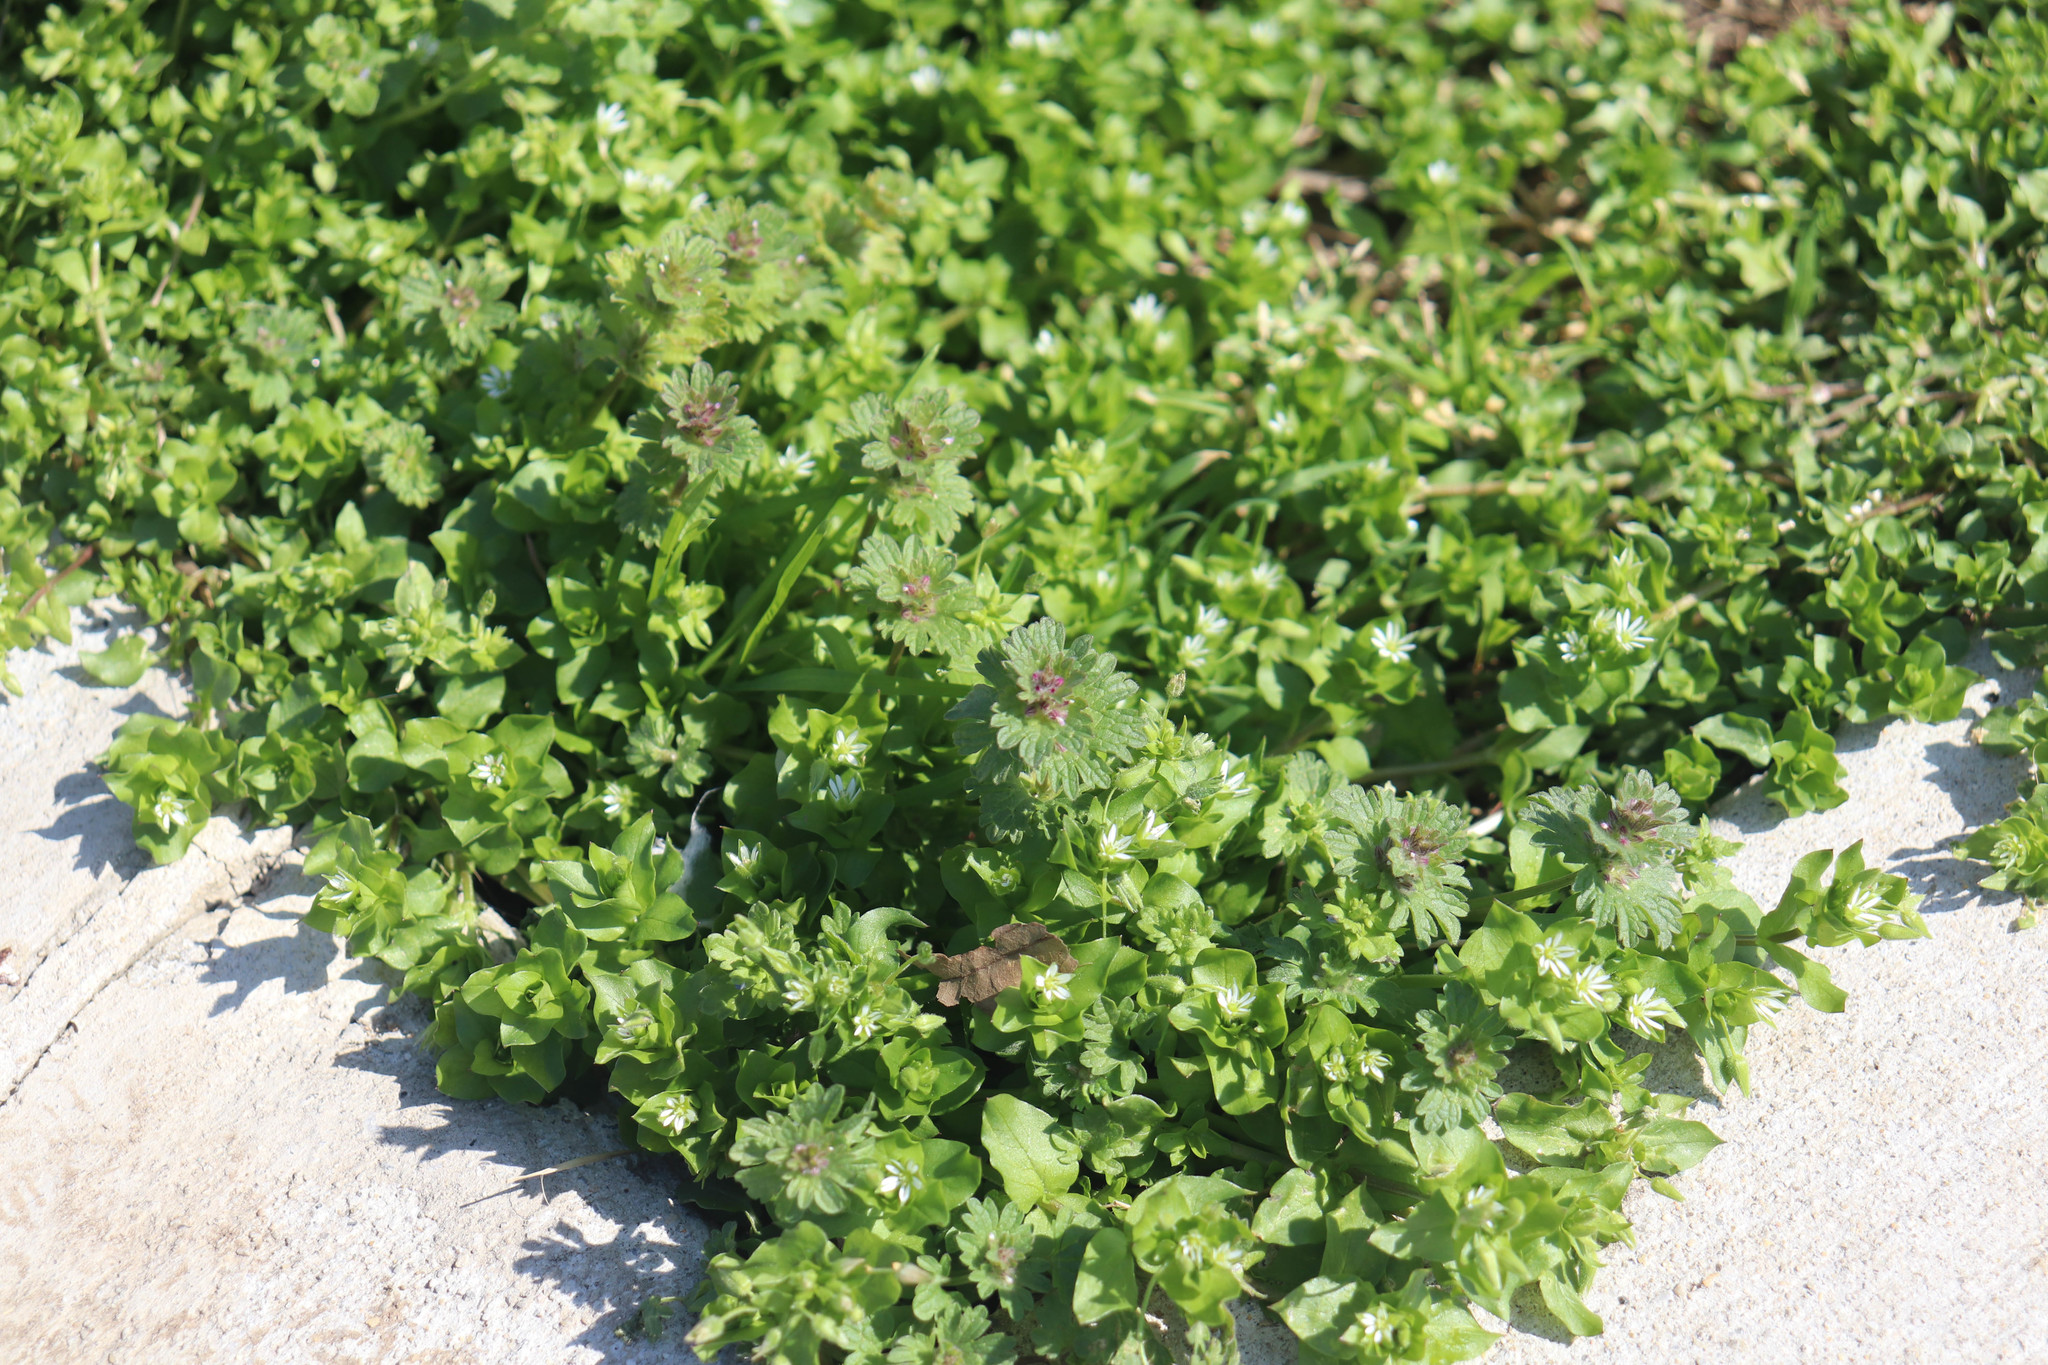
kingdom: Plantae
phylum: Tracheophyta
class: Magnoliopsida
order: Lamiales
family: Lamiaceae
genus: Lamium
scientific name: Lamium amplexicaule
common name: Henbit dead-nettle
